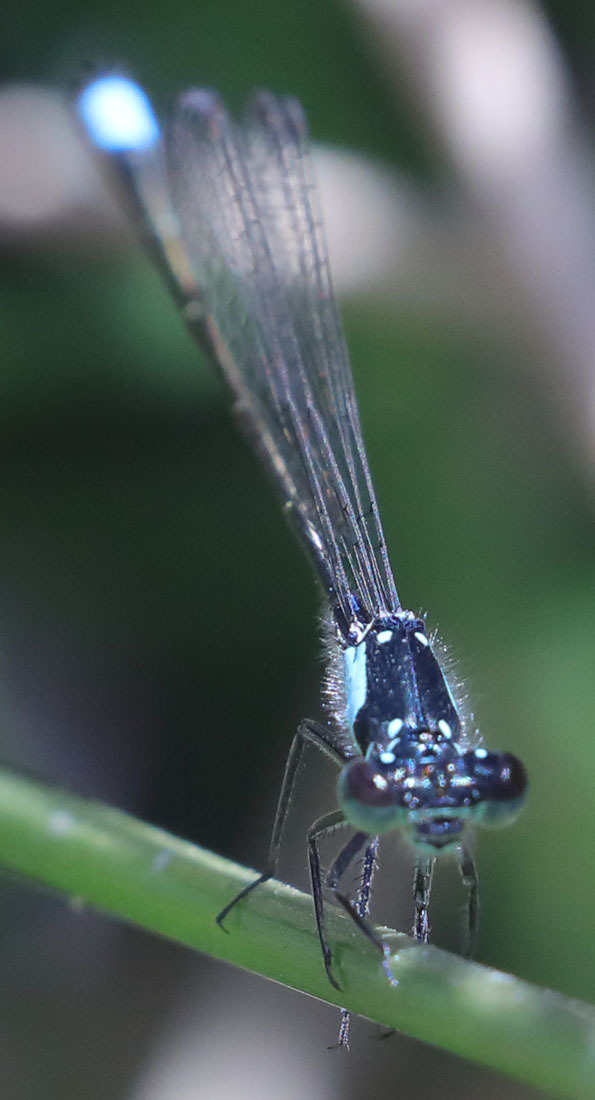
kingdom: Animalia
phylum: Arthropoda
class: Insecta
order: Odonata
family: Coenagrionidae
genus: Ischnura
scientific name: Ischnura cervula
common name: Pacific forktail
